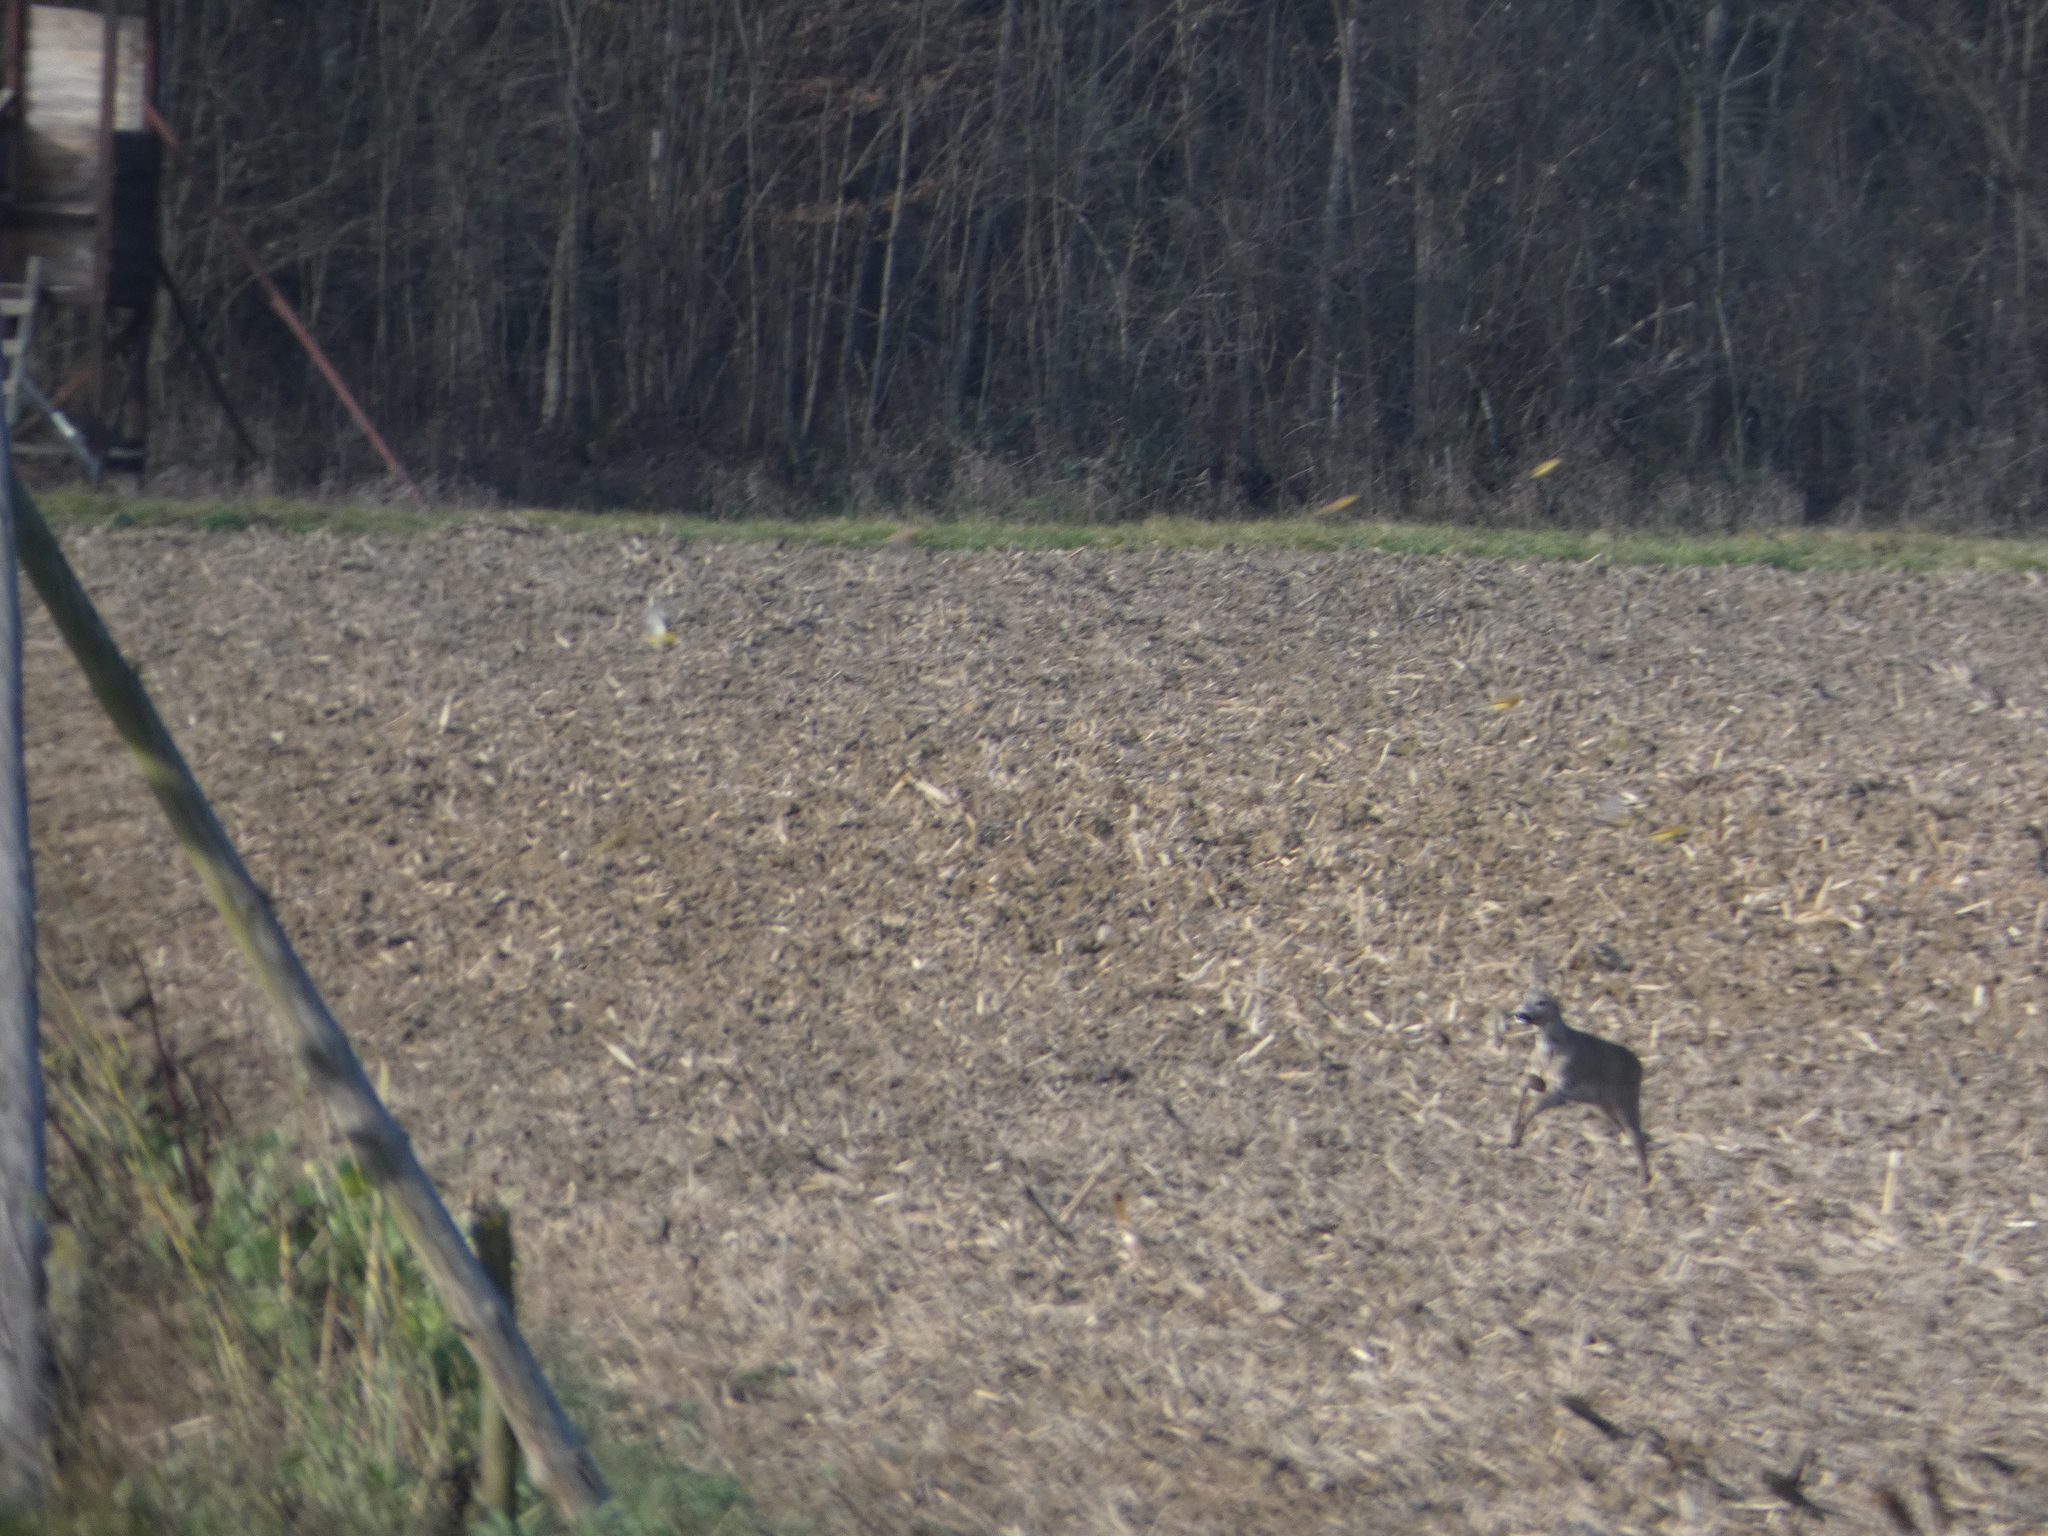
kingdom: Animalia
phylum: Chordata
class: Mammalia
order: Artiodactyla
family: Cervidae
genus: Capreolus
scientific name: Capreolus capreolus
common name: Western roe deer
